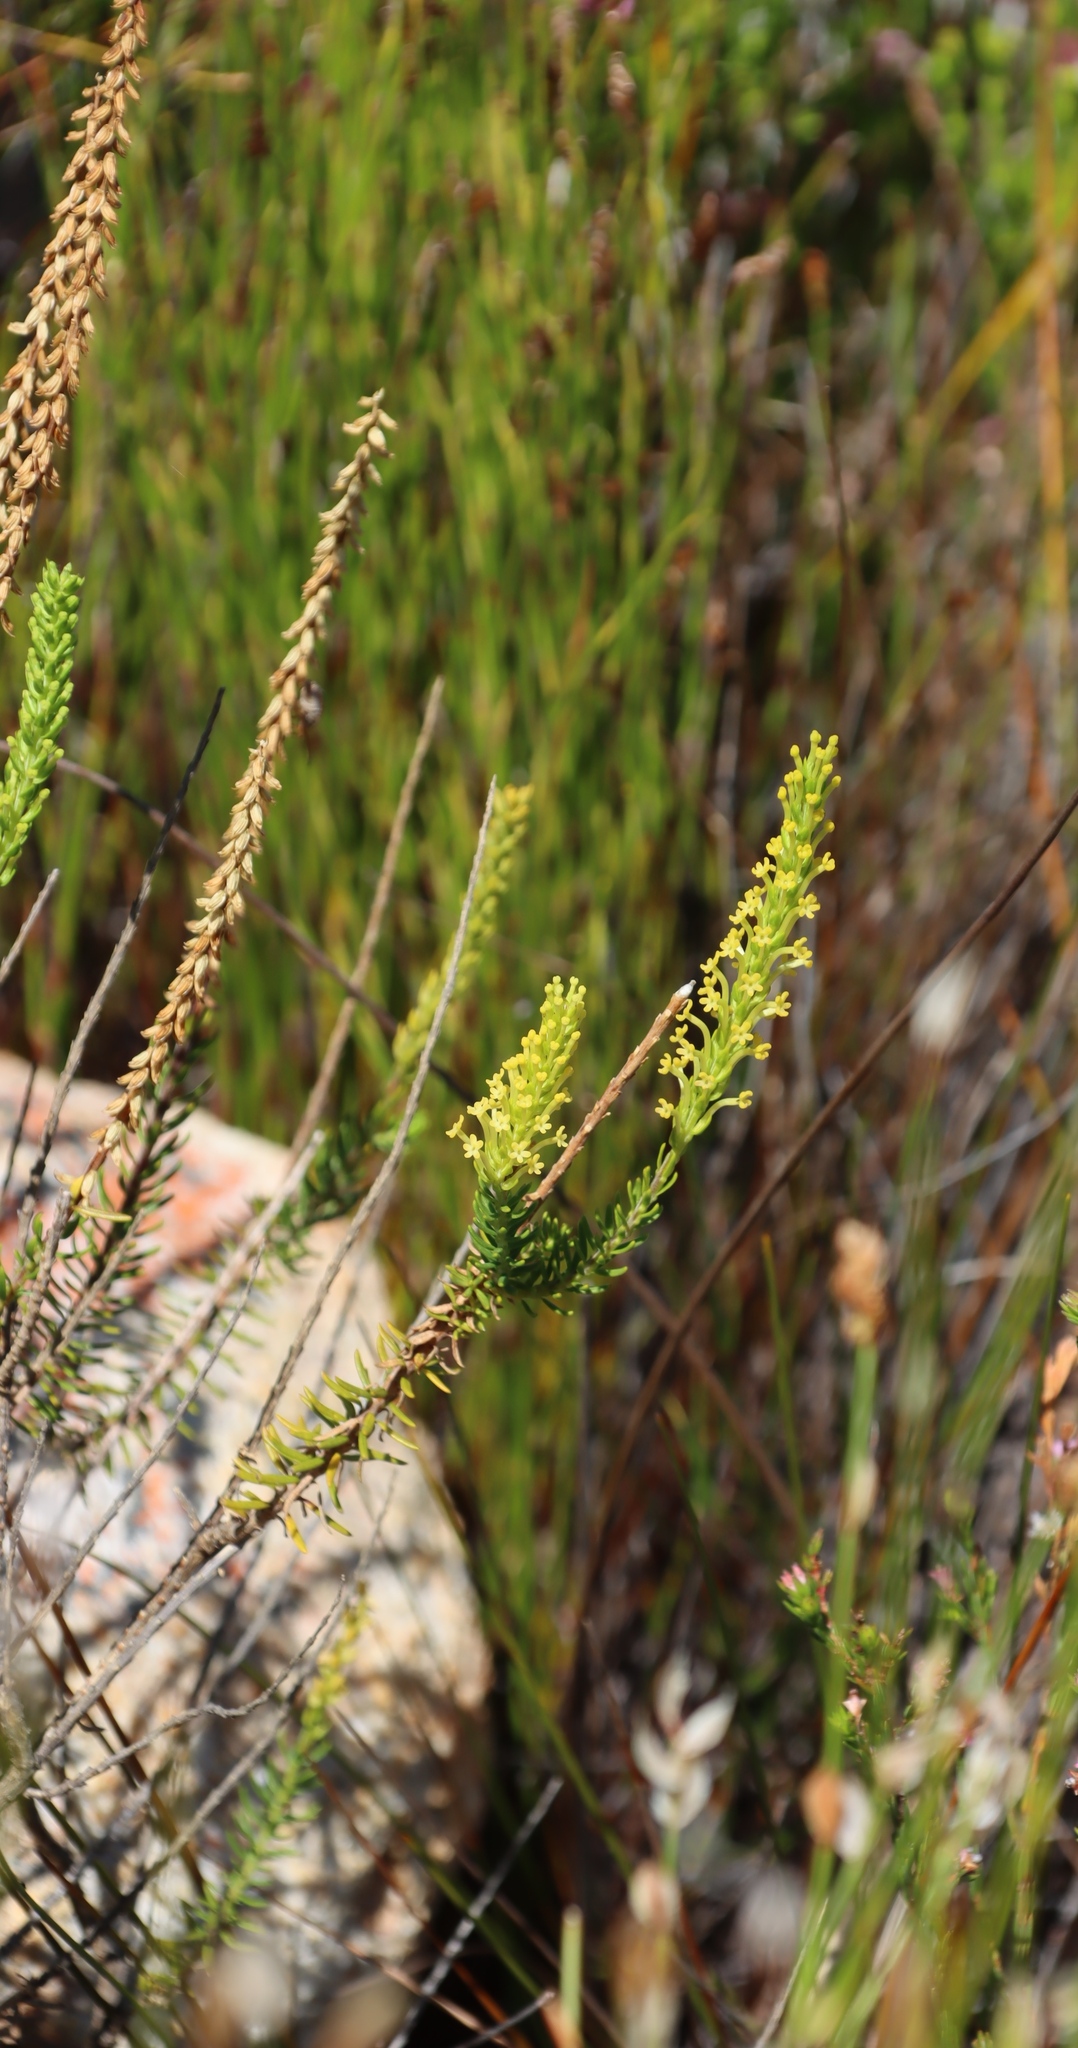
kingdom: Plantae
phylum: Tracheophyta
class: Magnoliopsida
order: Lamiales
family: Scrophulariaceae
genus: Microdon
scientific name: Microdon dubius
